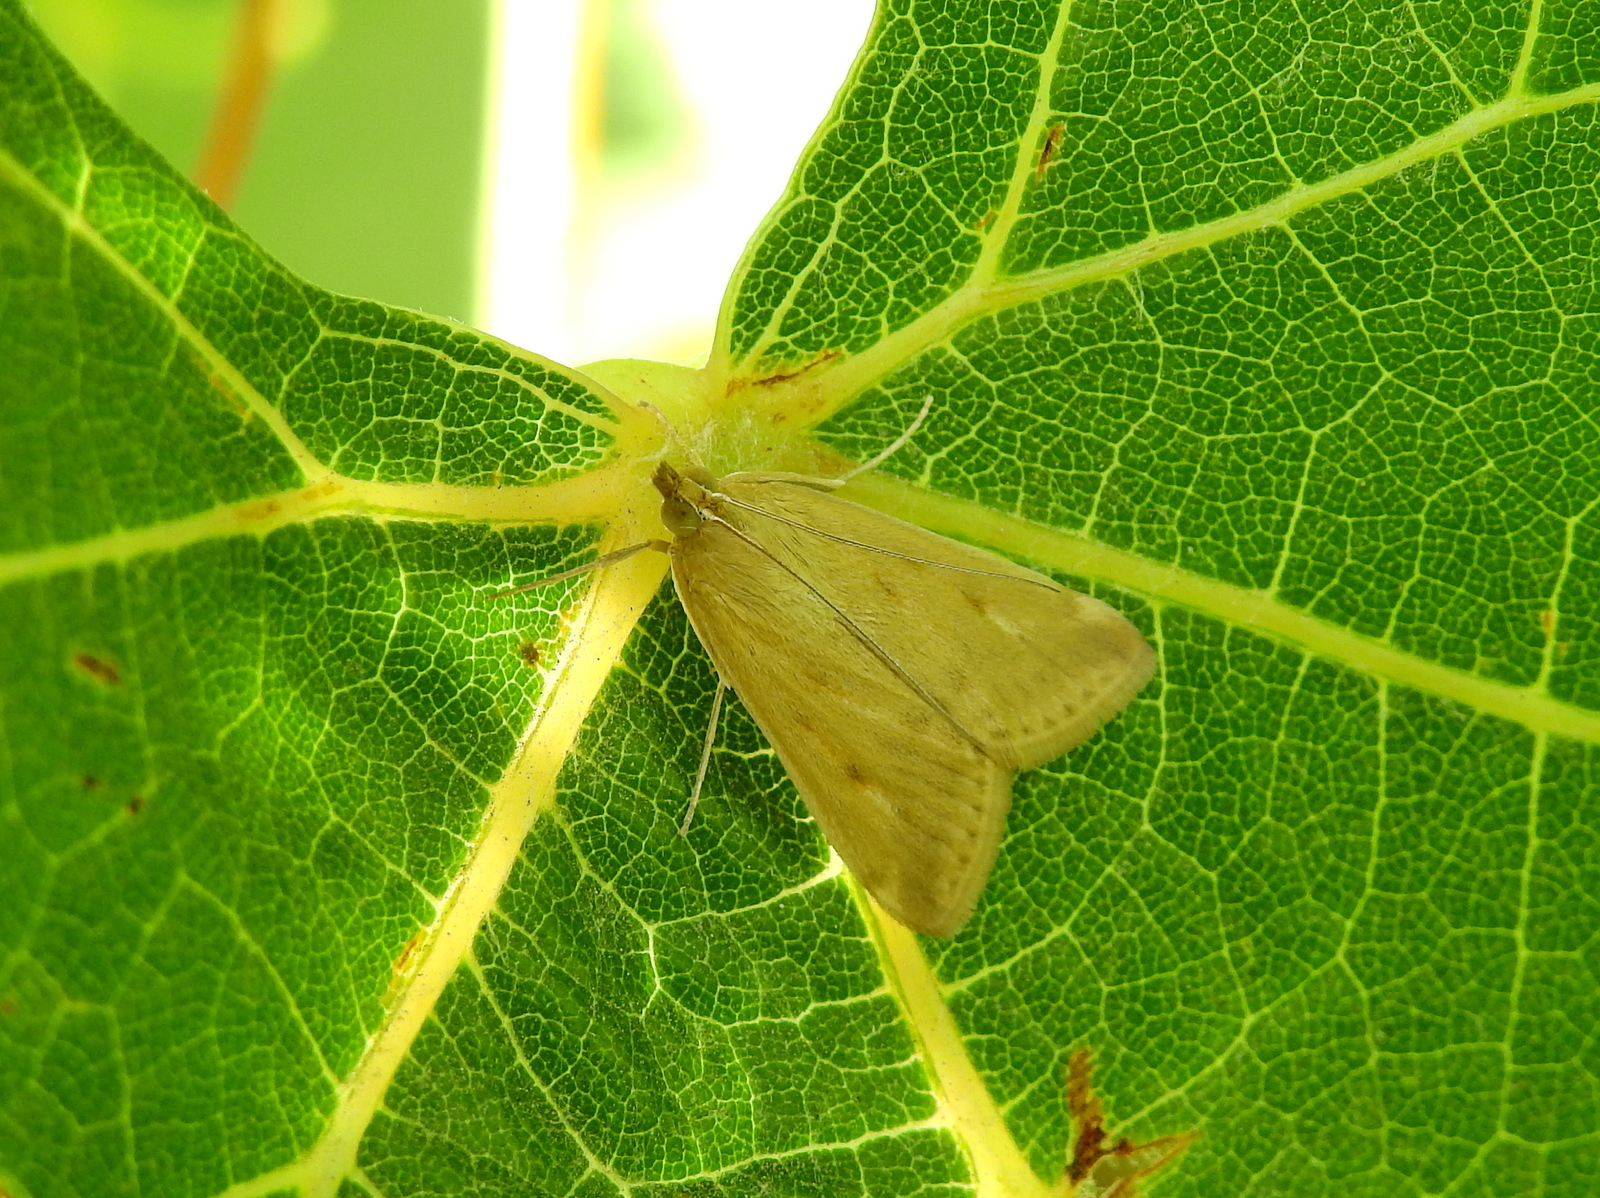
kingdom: Animalia
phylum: Arthropoda
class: Insecta
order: Lepidoptera
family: Crambidae
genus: Achyra
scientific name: Achyra bifidalis
